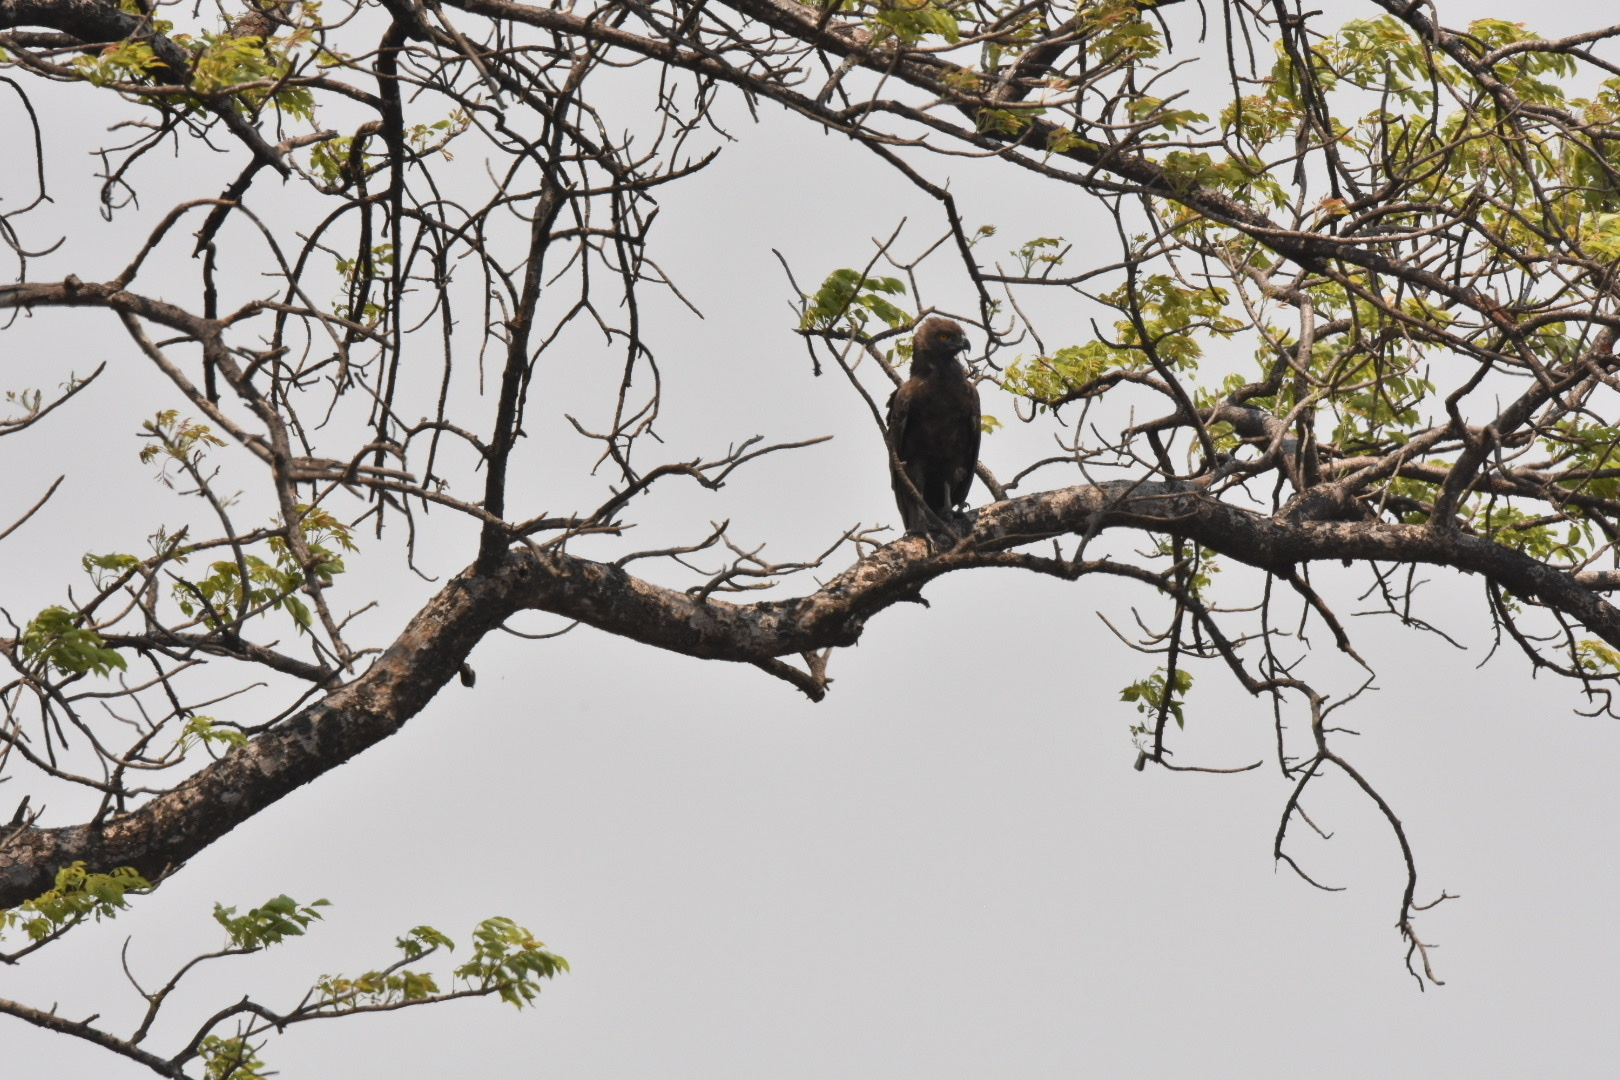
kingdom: Animalia
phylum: Chordata
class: Aves
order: Accipitriformes
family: Accipitridae
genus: Circaetus
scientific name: Circaetus cinereus
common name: Brown snake eagle
